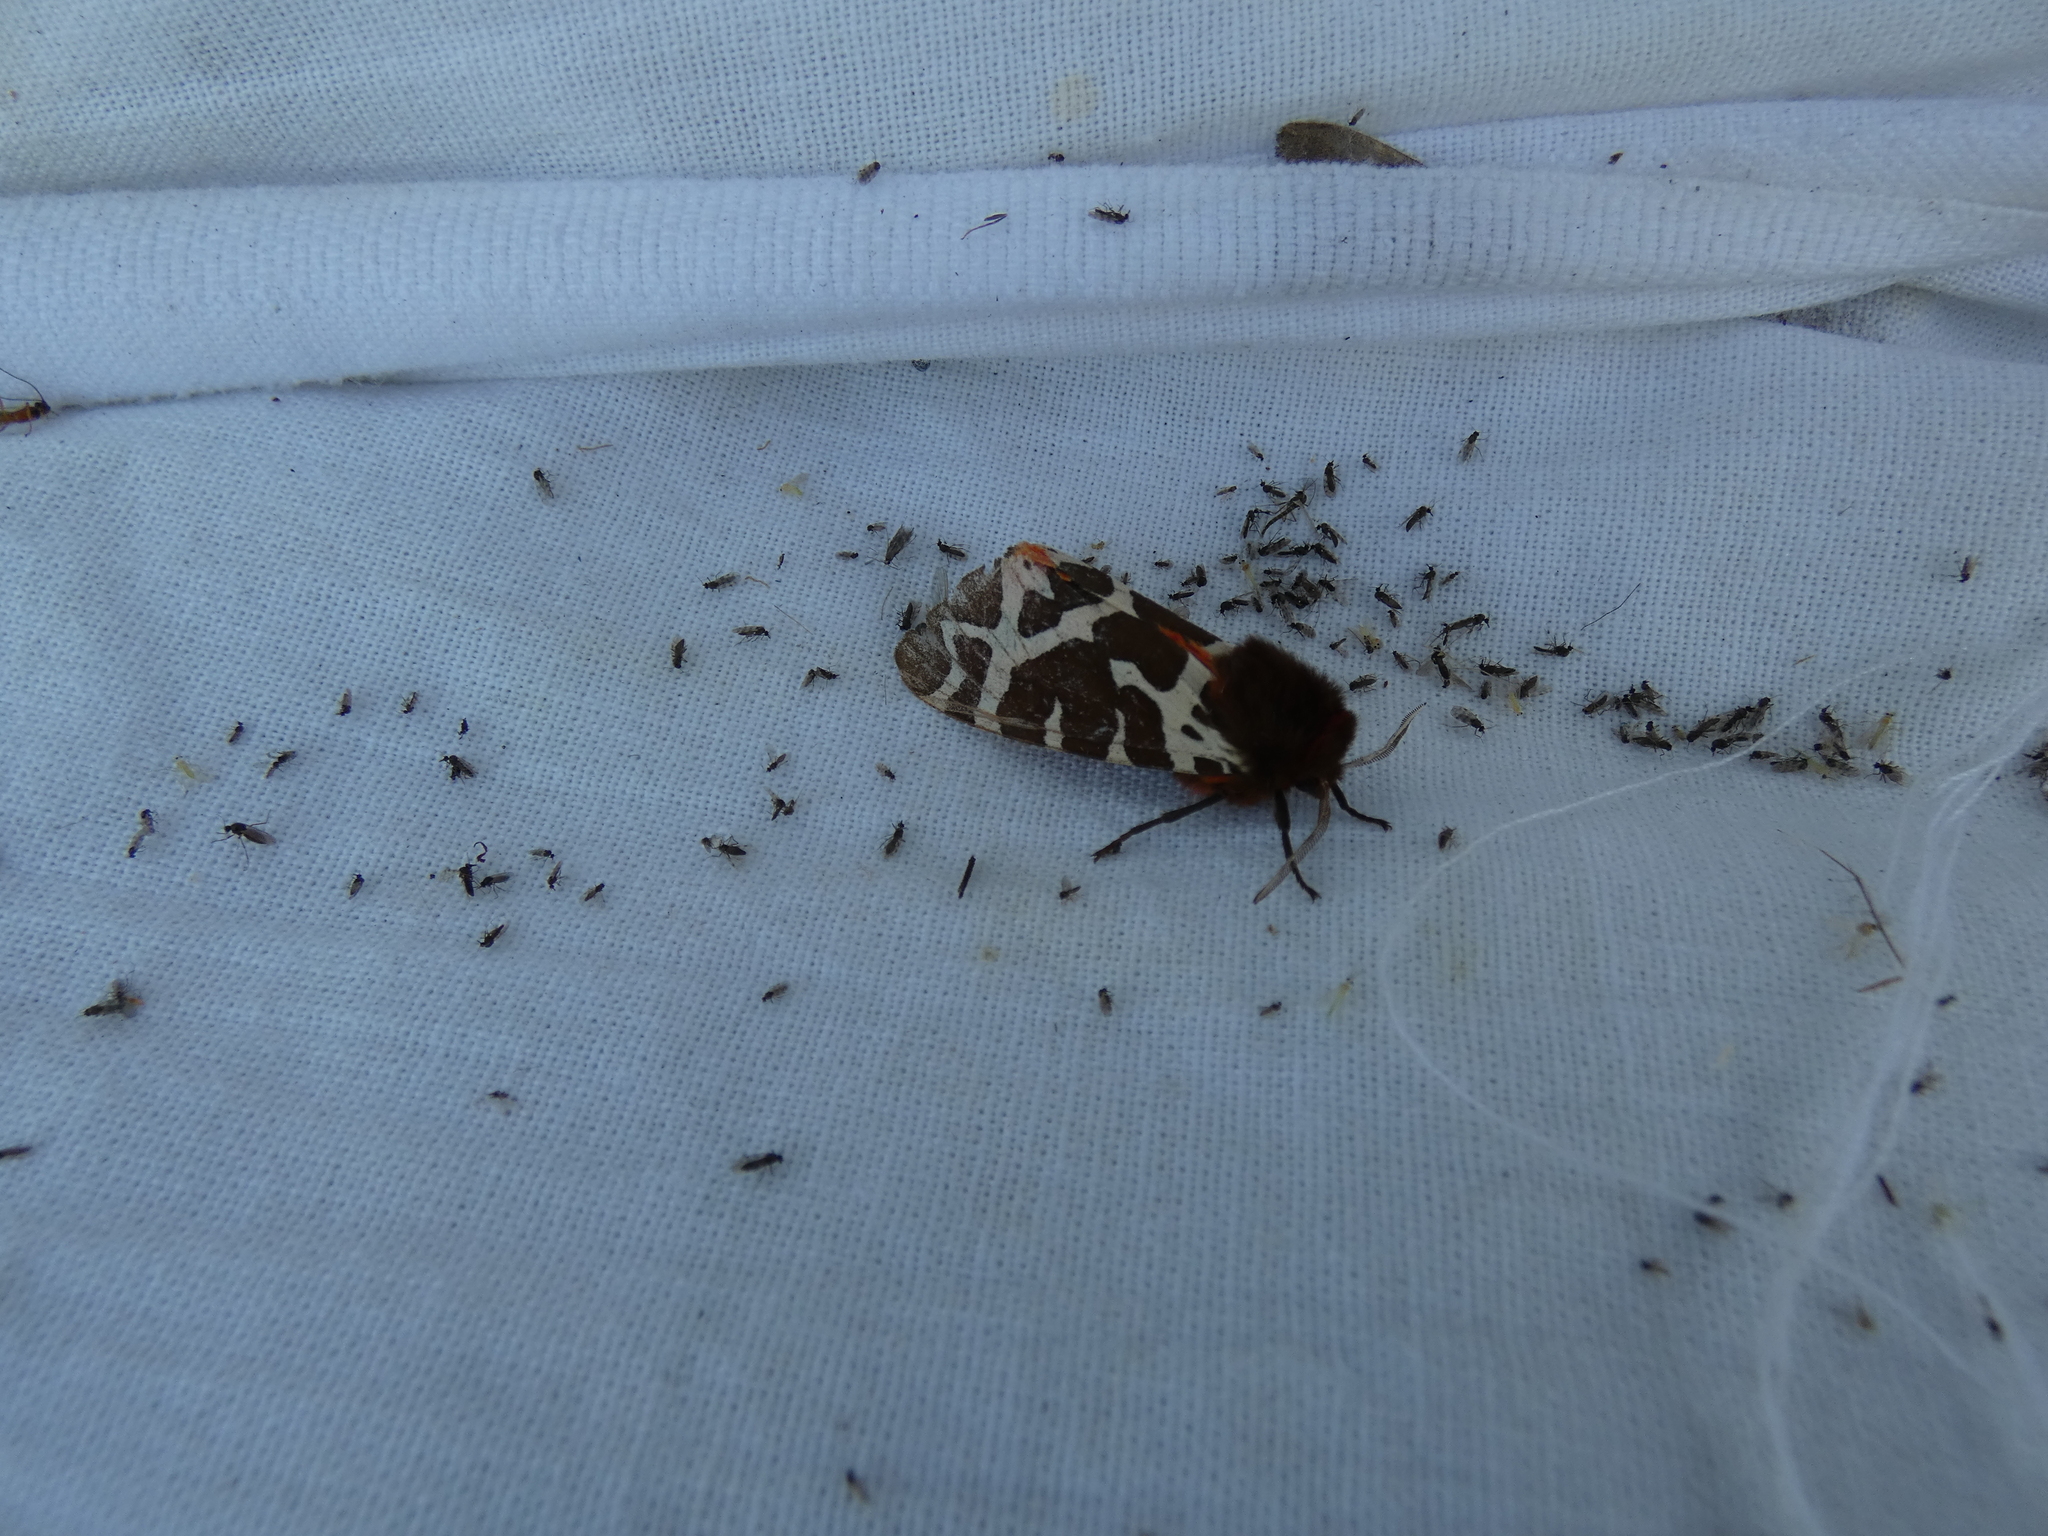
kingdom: Animalia
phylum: Arthropoda
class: Insecta
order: Lepidoptera
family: Erebidae
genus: Arctia
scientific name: Arctia caja
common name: Garden tiger
